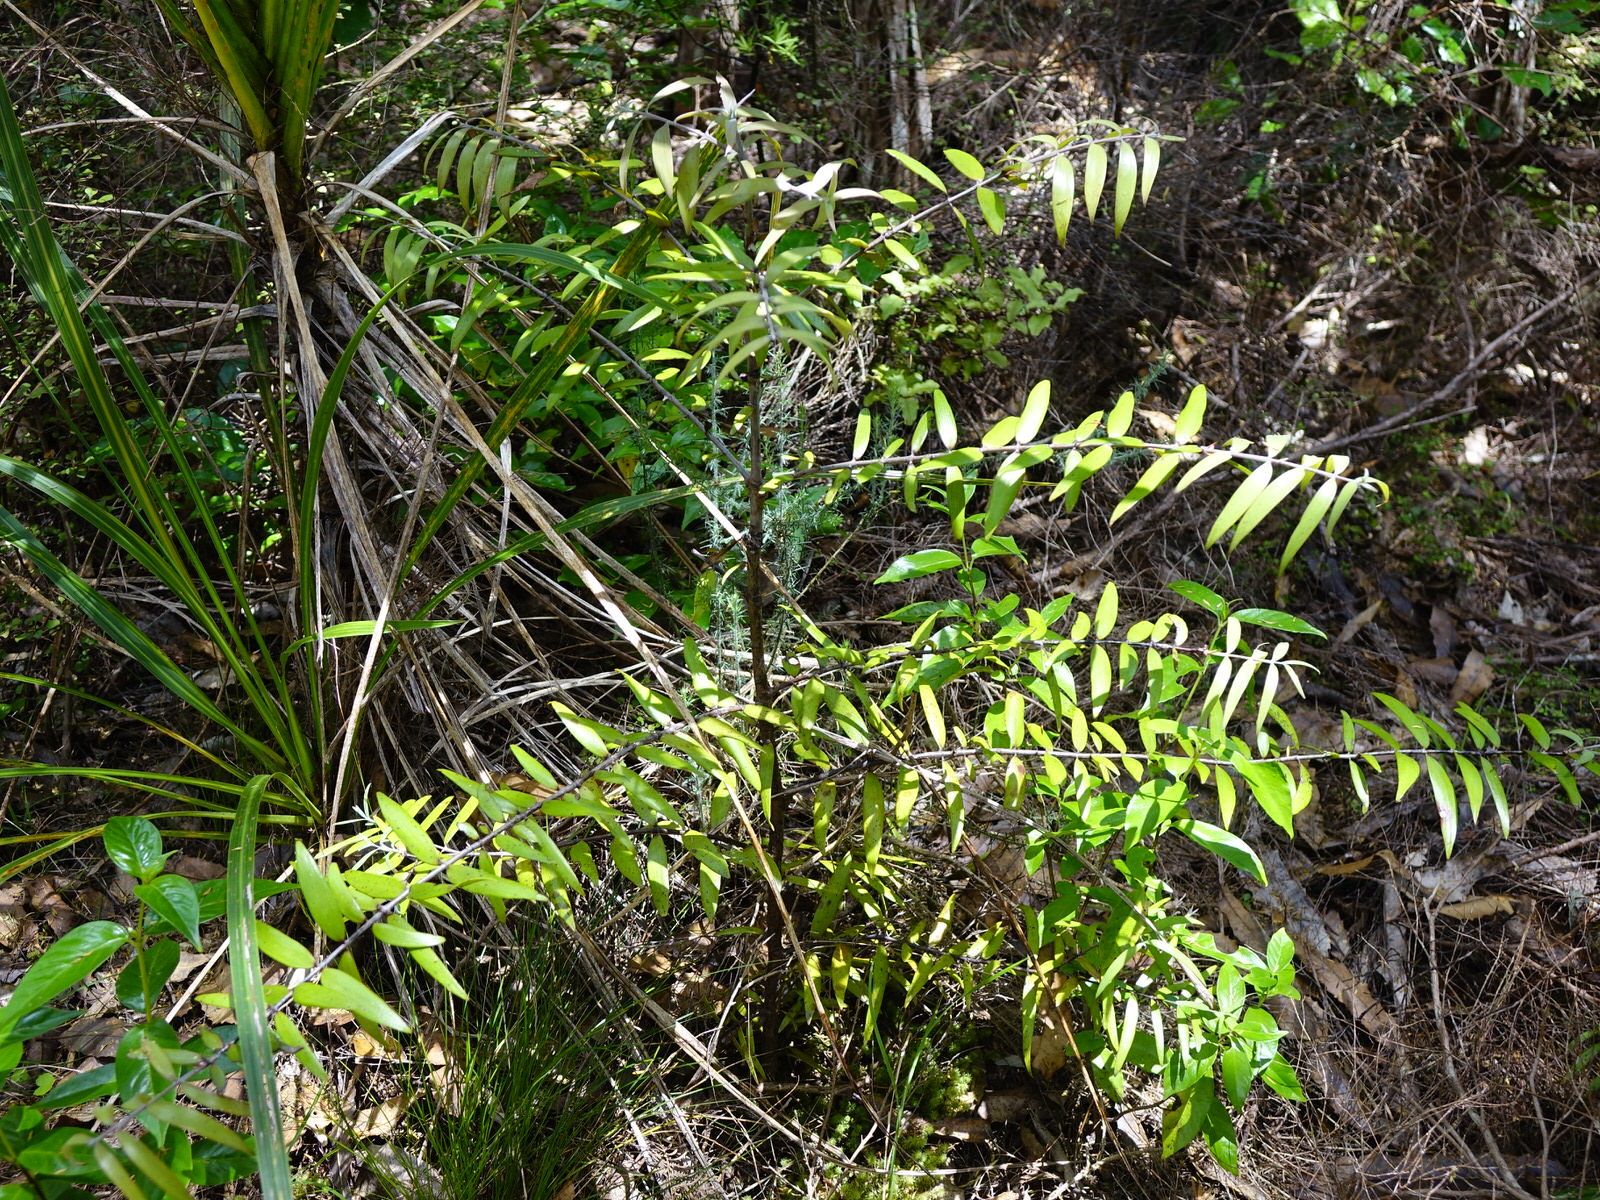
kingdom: Plantae
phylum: Tracheophyta
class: Pinopsida
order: Pinales
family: Araucariaceae
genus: Agathis
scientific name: Agathis australis
